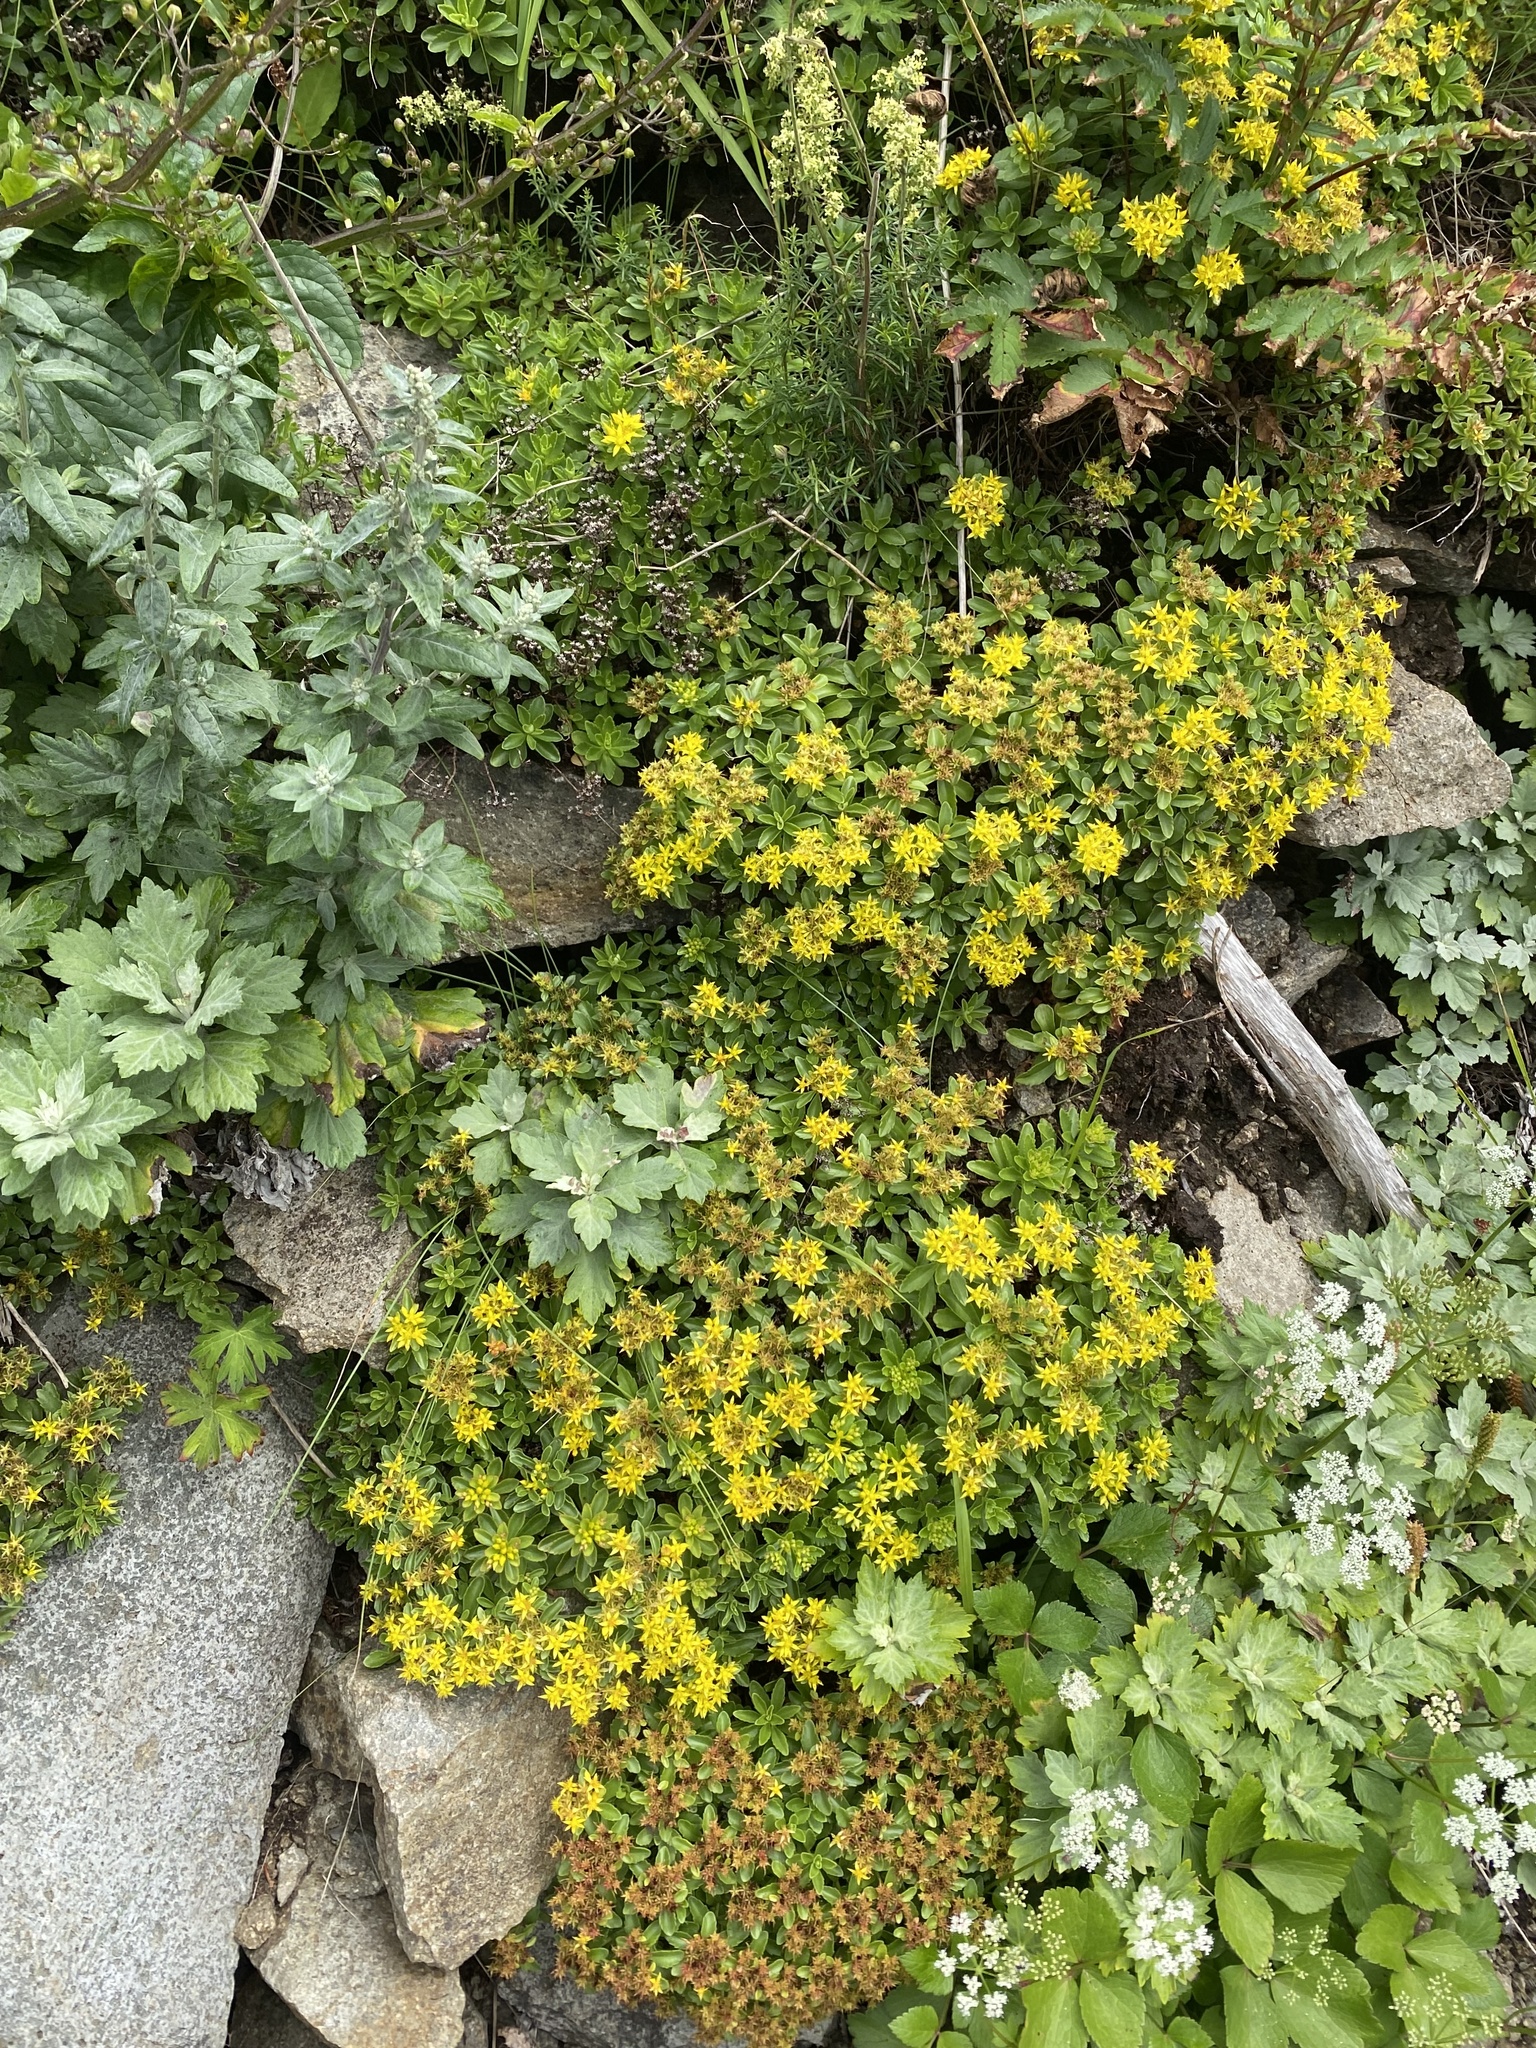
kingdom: Plantae
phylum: Tracheophyta
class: Magnoliopsida
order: Saxifragales
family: Crassulaceae
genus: Phedimus
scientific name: Phedimus kamtschaticus
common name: Orange stonecrop
